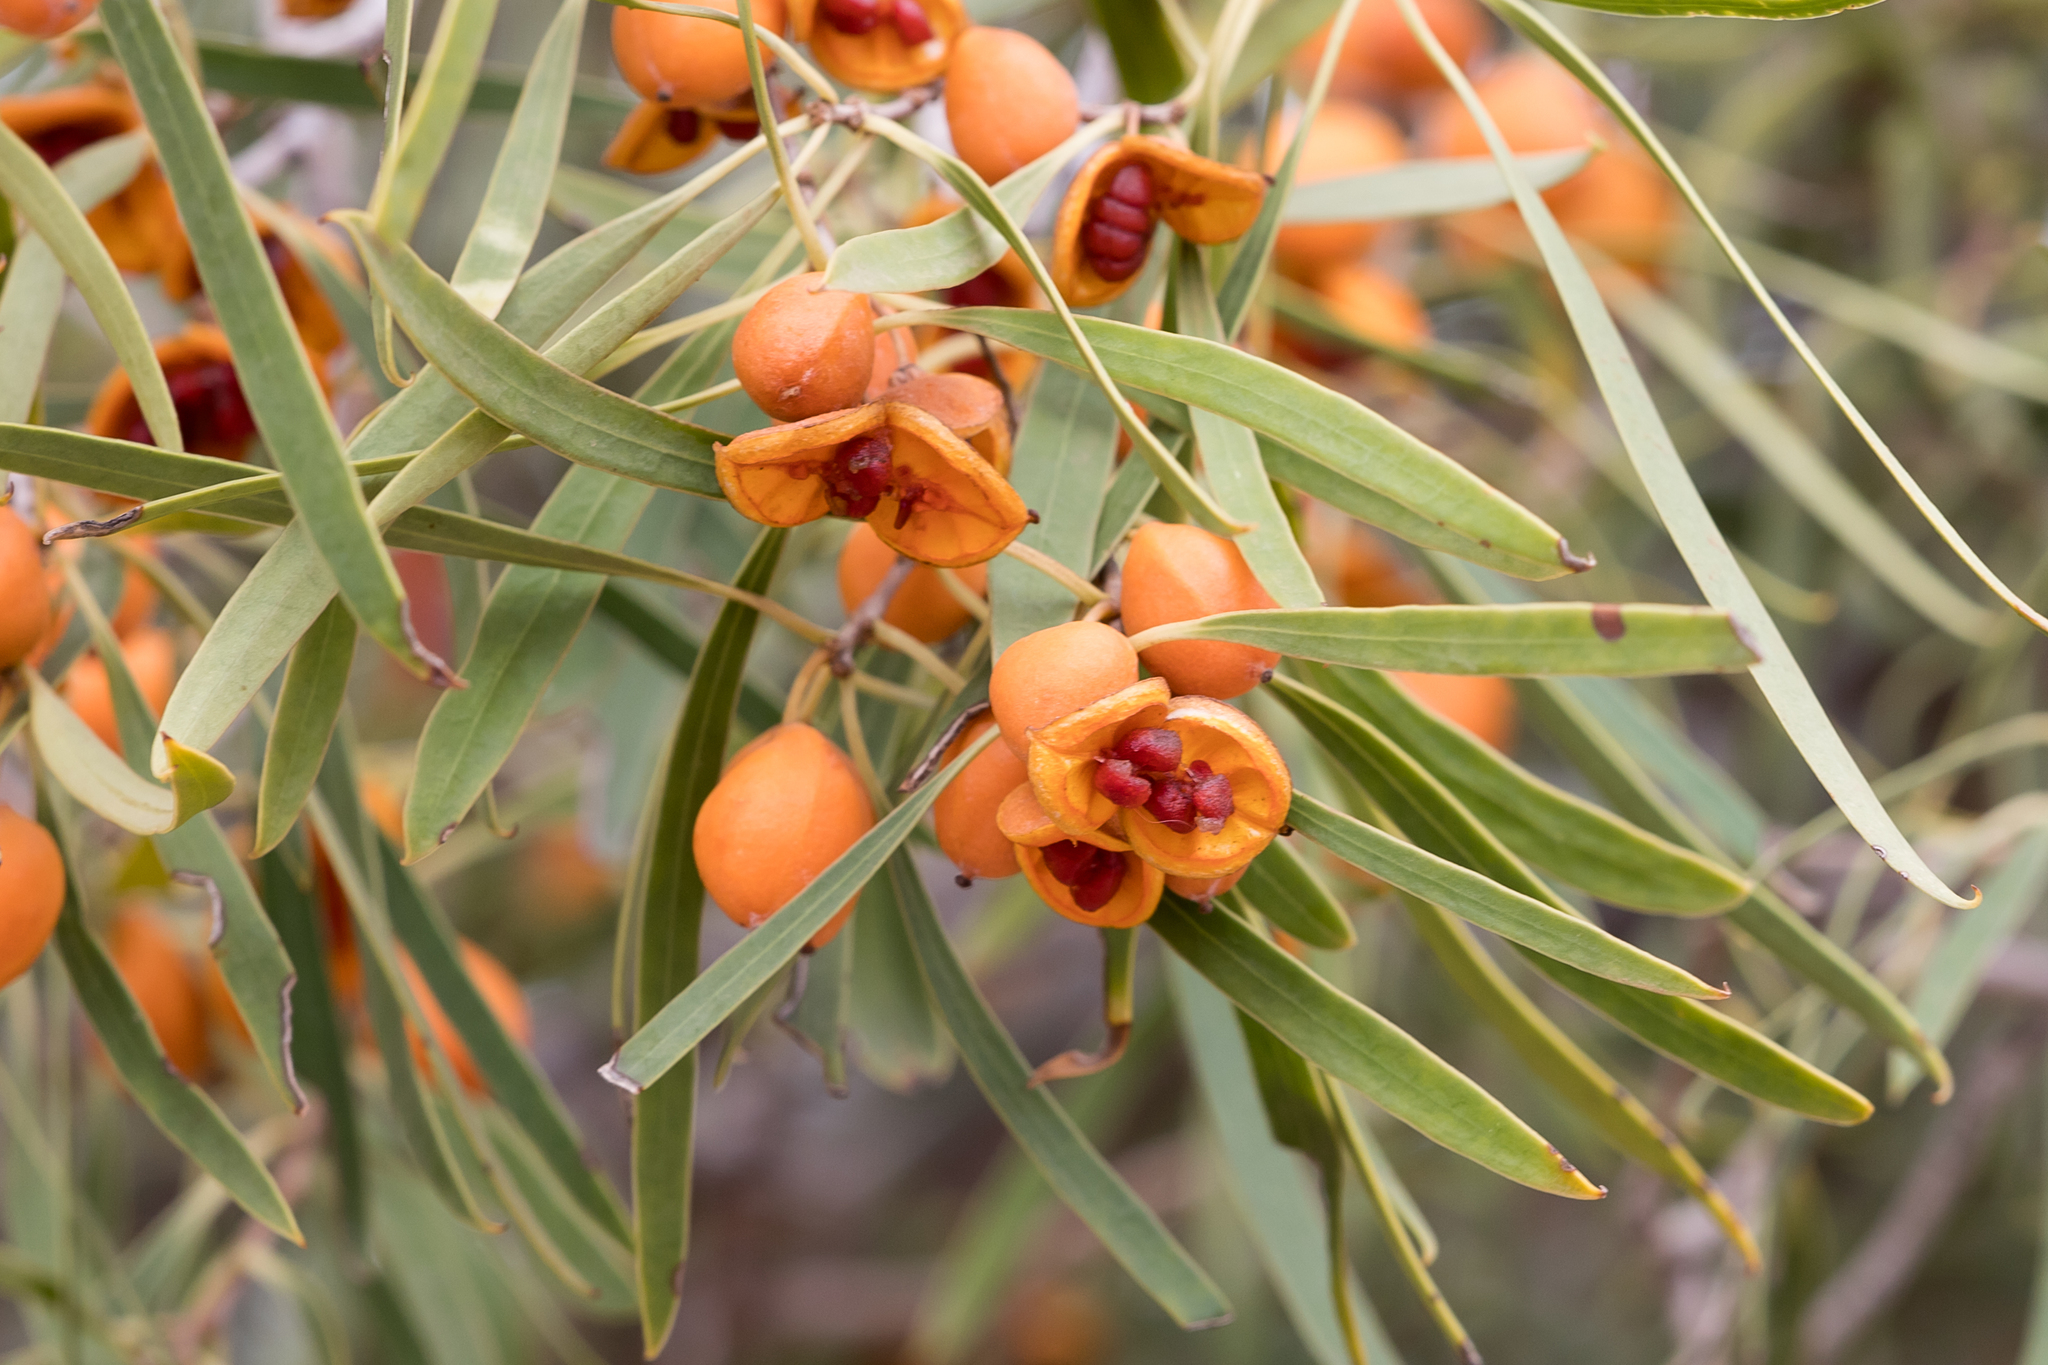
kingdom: Plantae
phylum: Tracheophyta
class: Magnoliopsida
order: Apiales
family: Pittosporaceae
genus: Pittosporum
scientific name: Pittosporum angustifolium
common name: Weeping pittosporum
